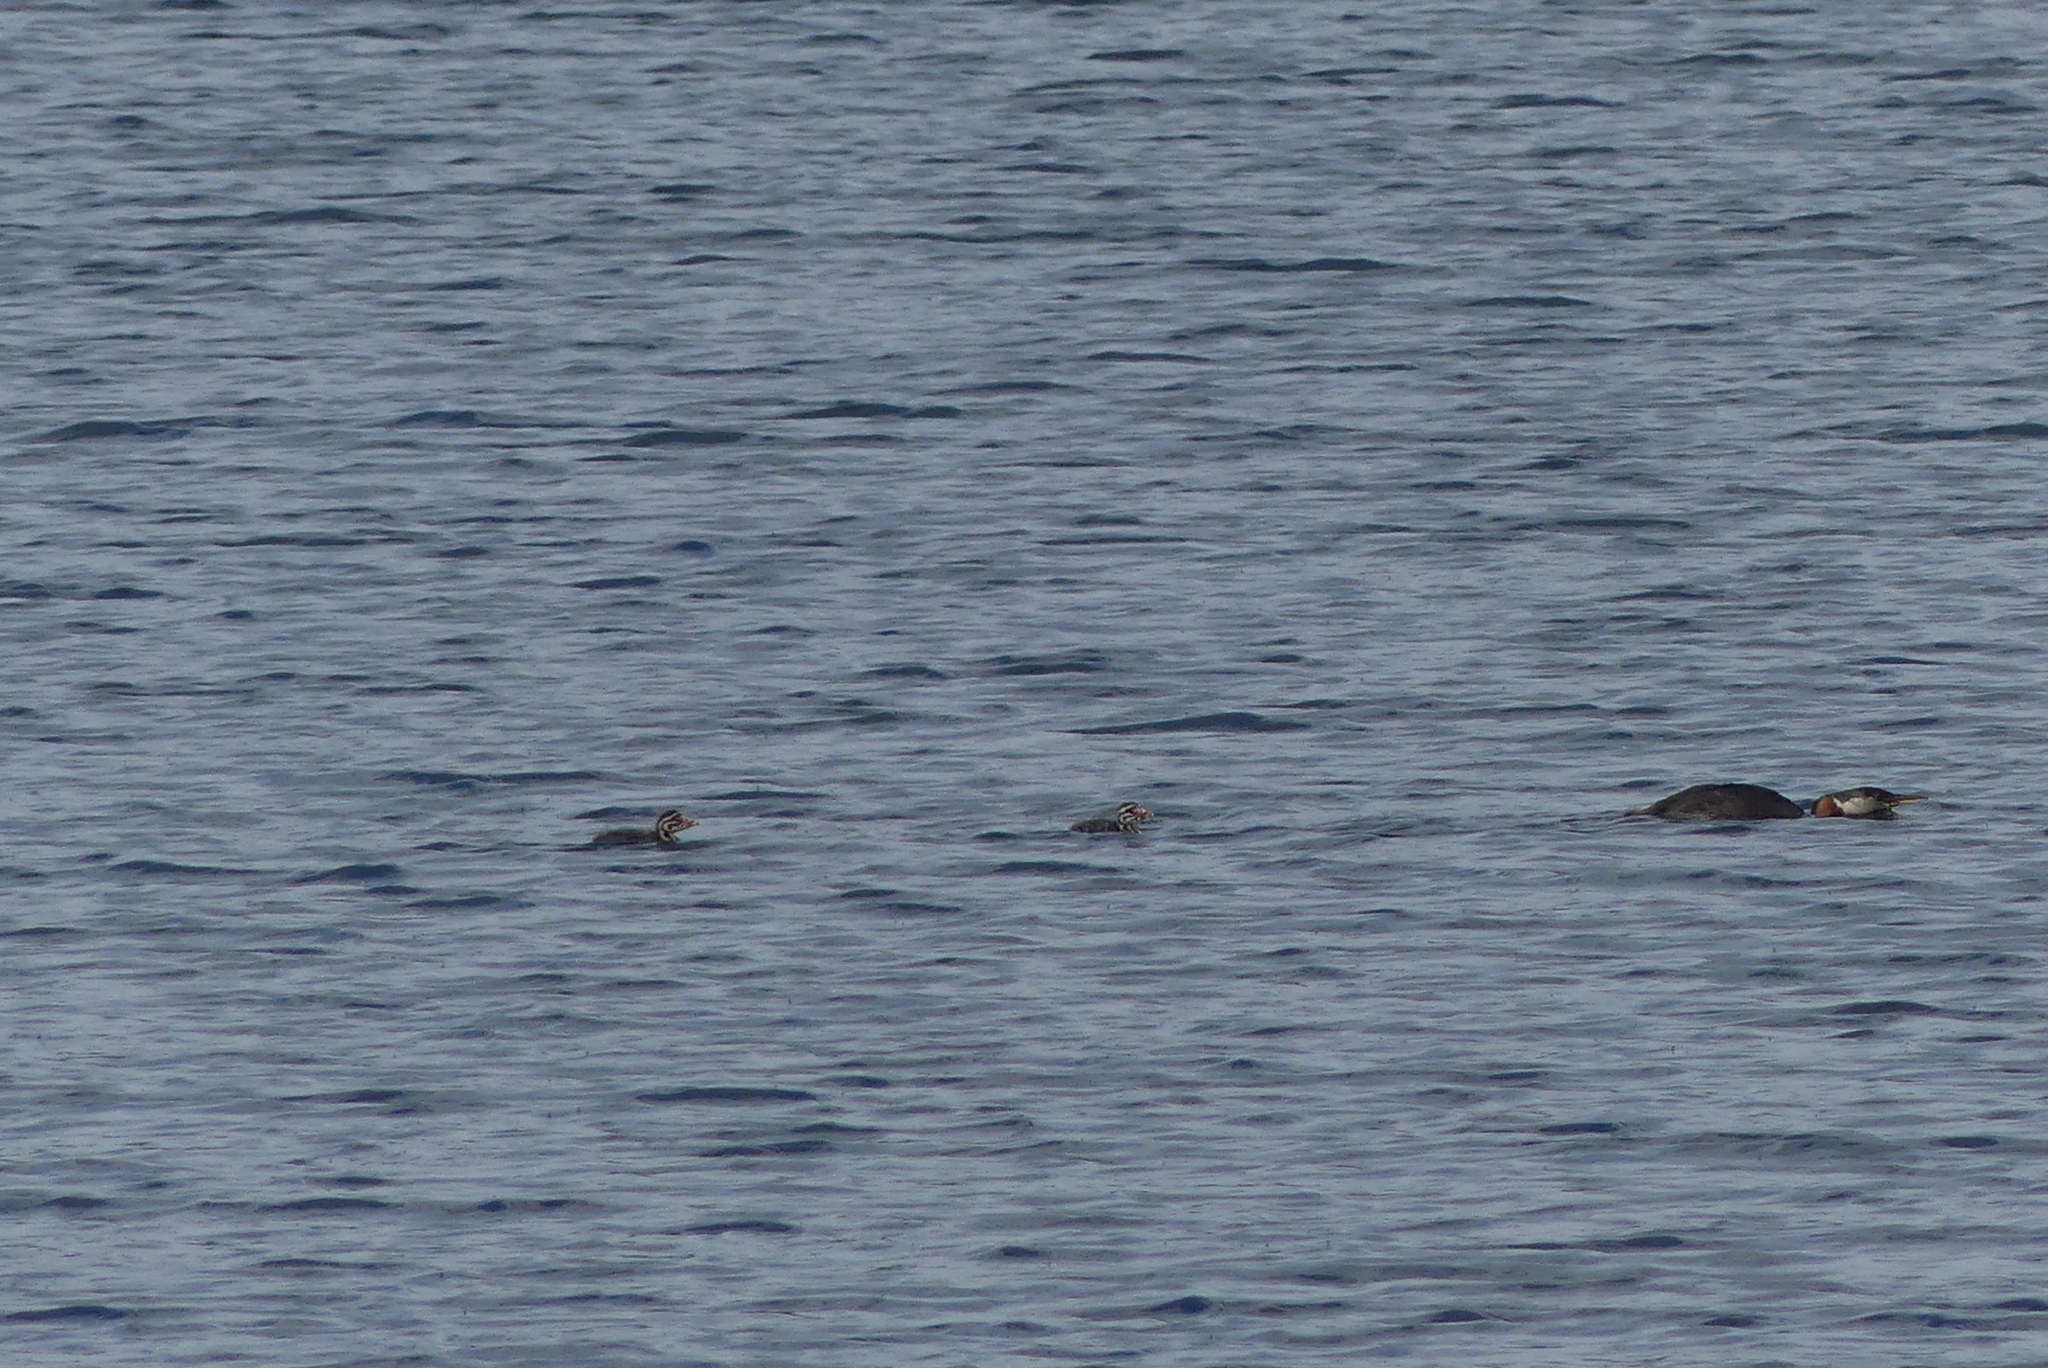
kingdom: Animalia
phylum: Chordata
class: Aves
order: Podicipediformes
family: Podicipedidae
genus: Podiceps
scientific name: Podiceps grisegena
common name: Red-necked grebe
